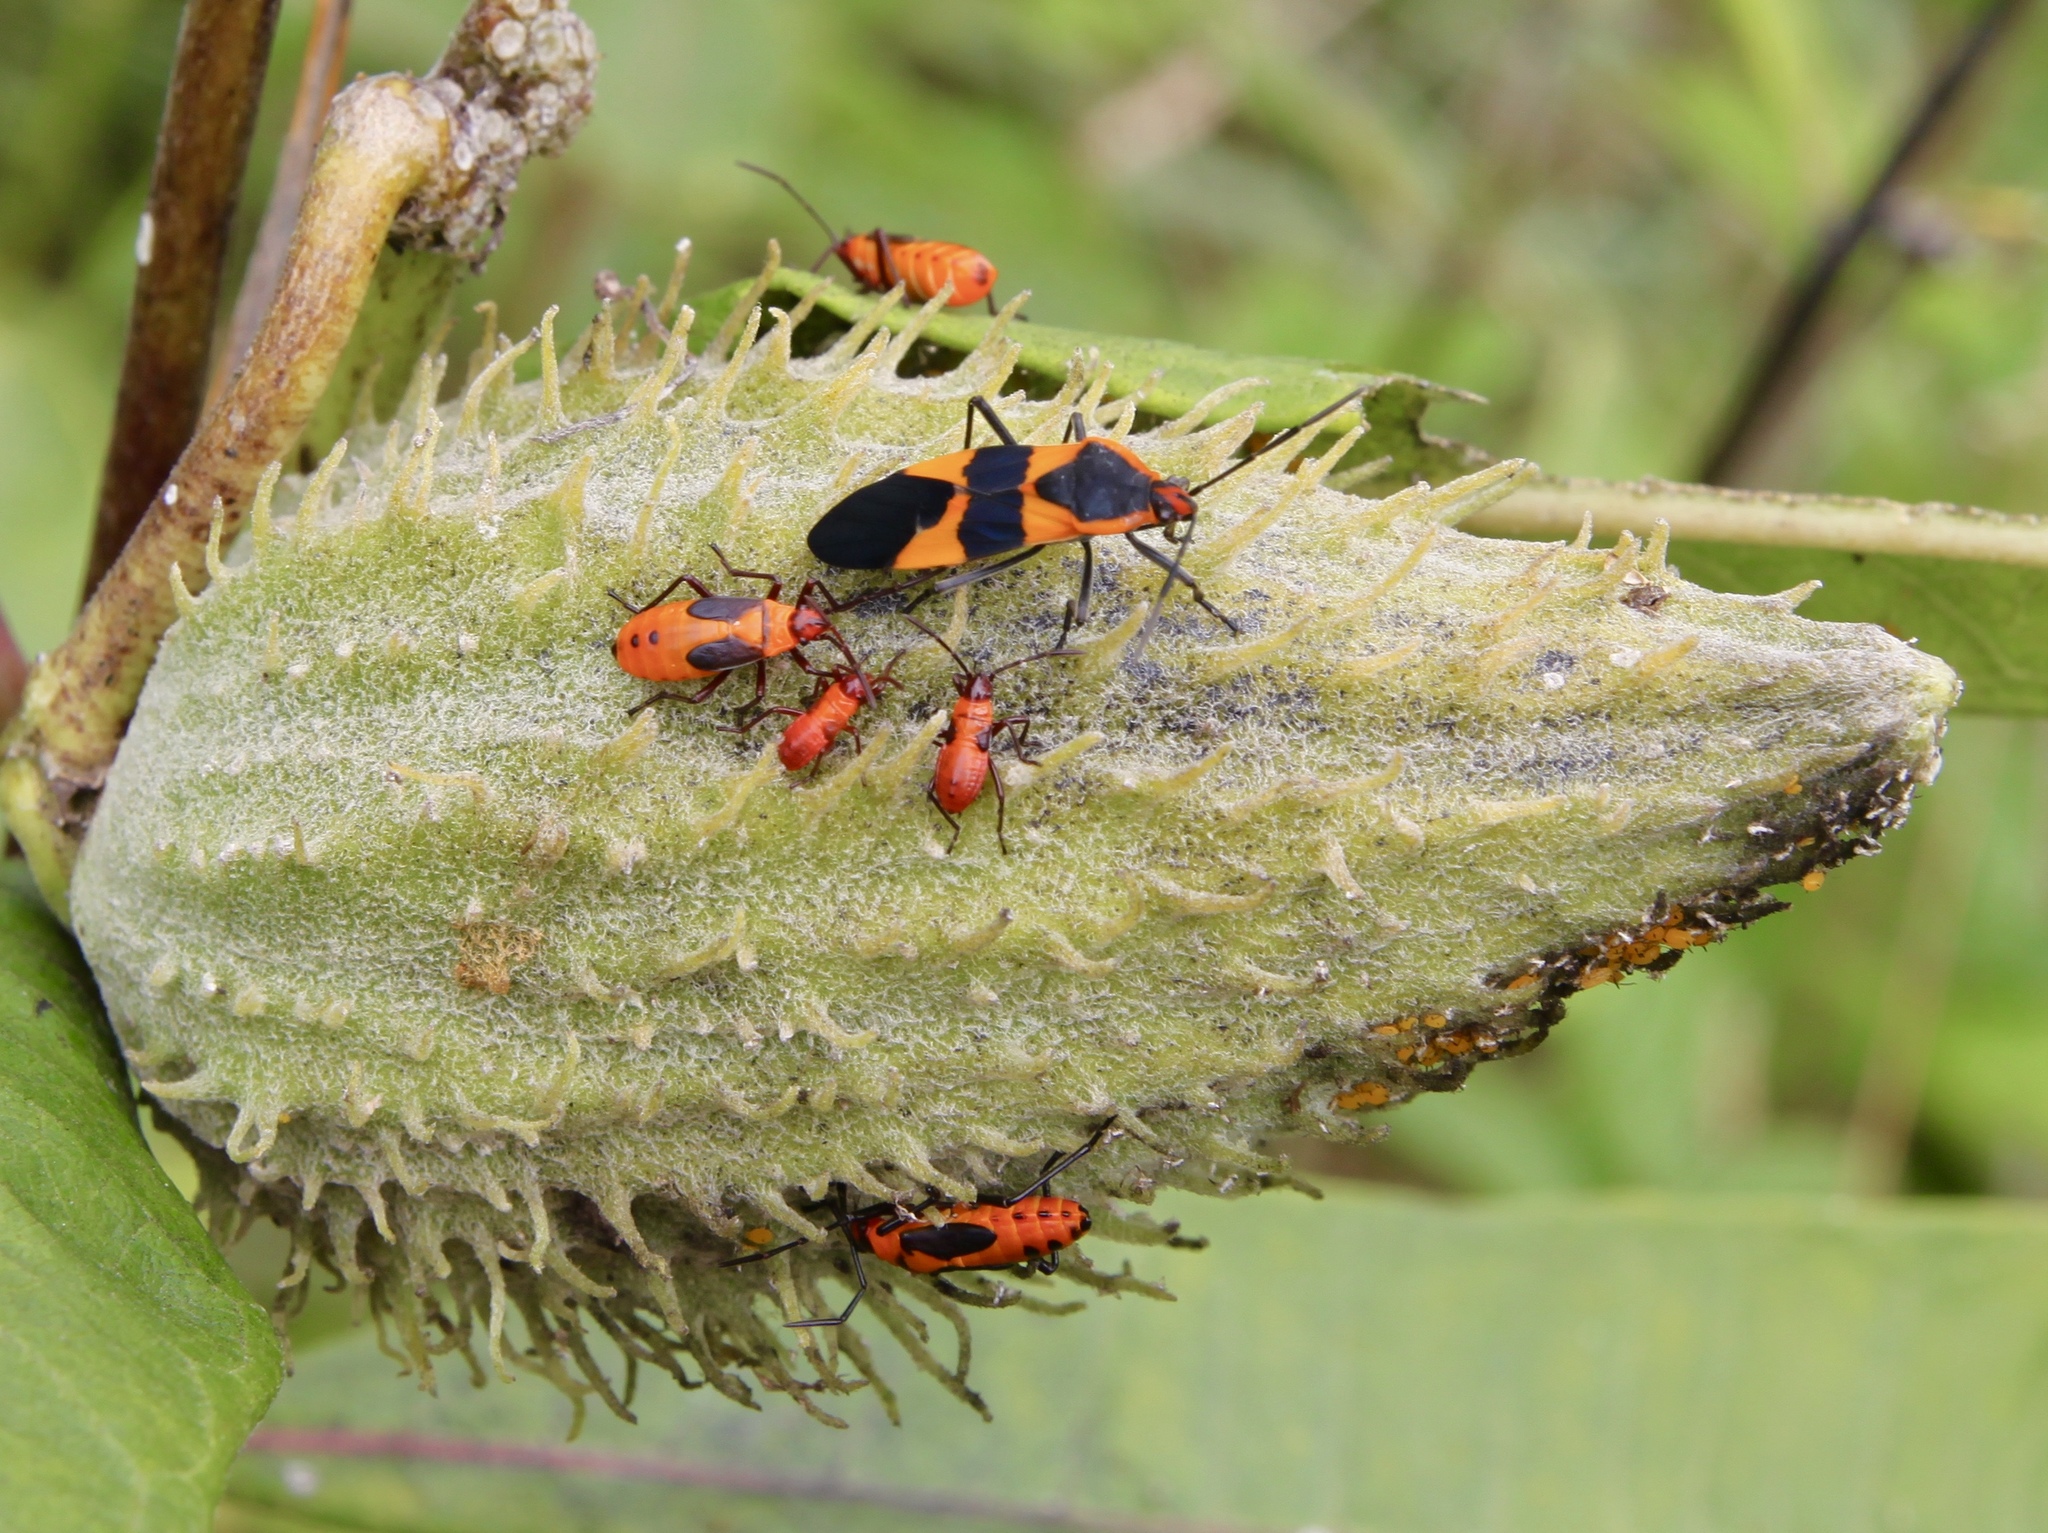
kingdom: Animalia
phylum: Arthropoda
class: Insecta
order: Hemiptera
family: Lygaeidae
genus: Oncopeltus
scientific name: Oncopeltus fasciatus
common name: Large milkweed bug
